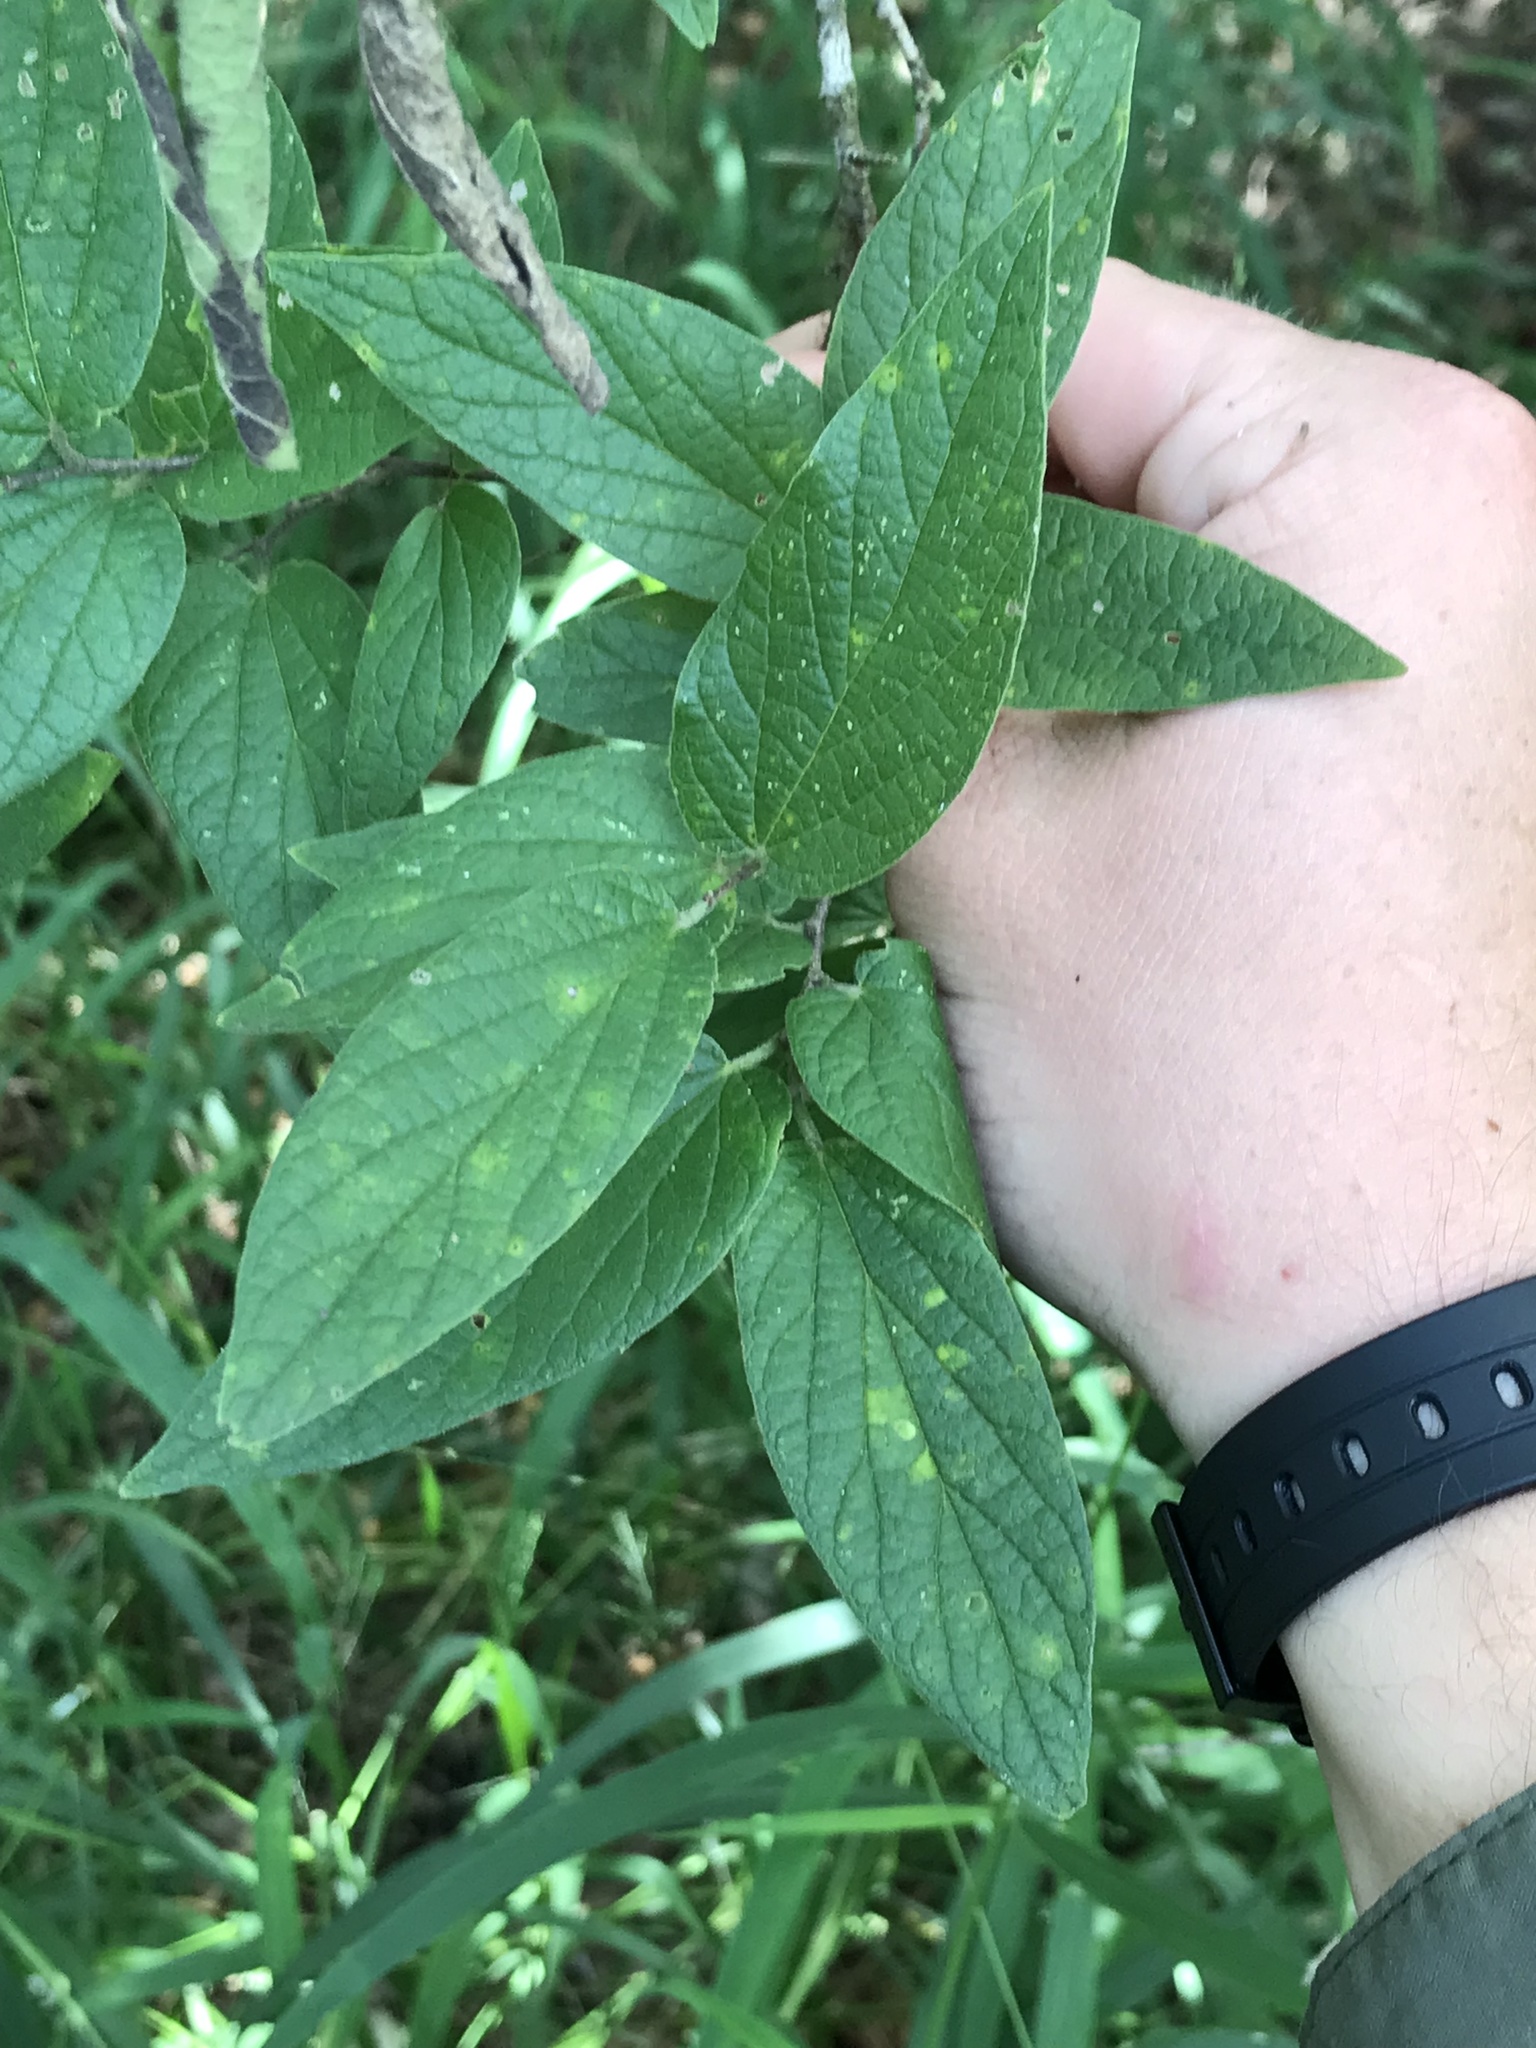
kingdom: Plantae
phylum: Tracheophyta
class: Magnoliopsida
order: Rosales
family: Cannabaceae
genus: Celtis
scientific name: Celtis reticulata
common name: Netleaf hackberry
